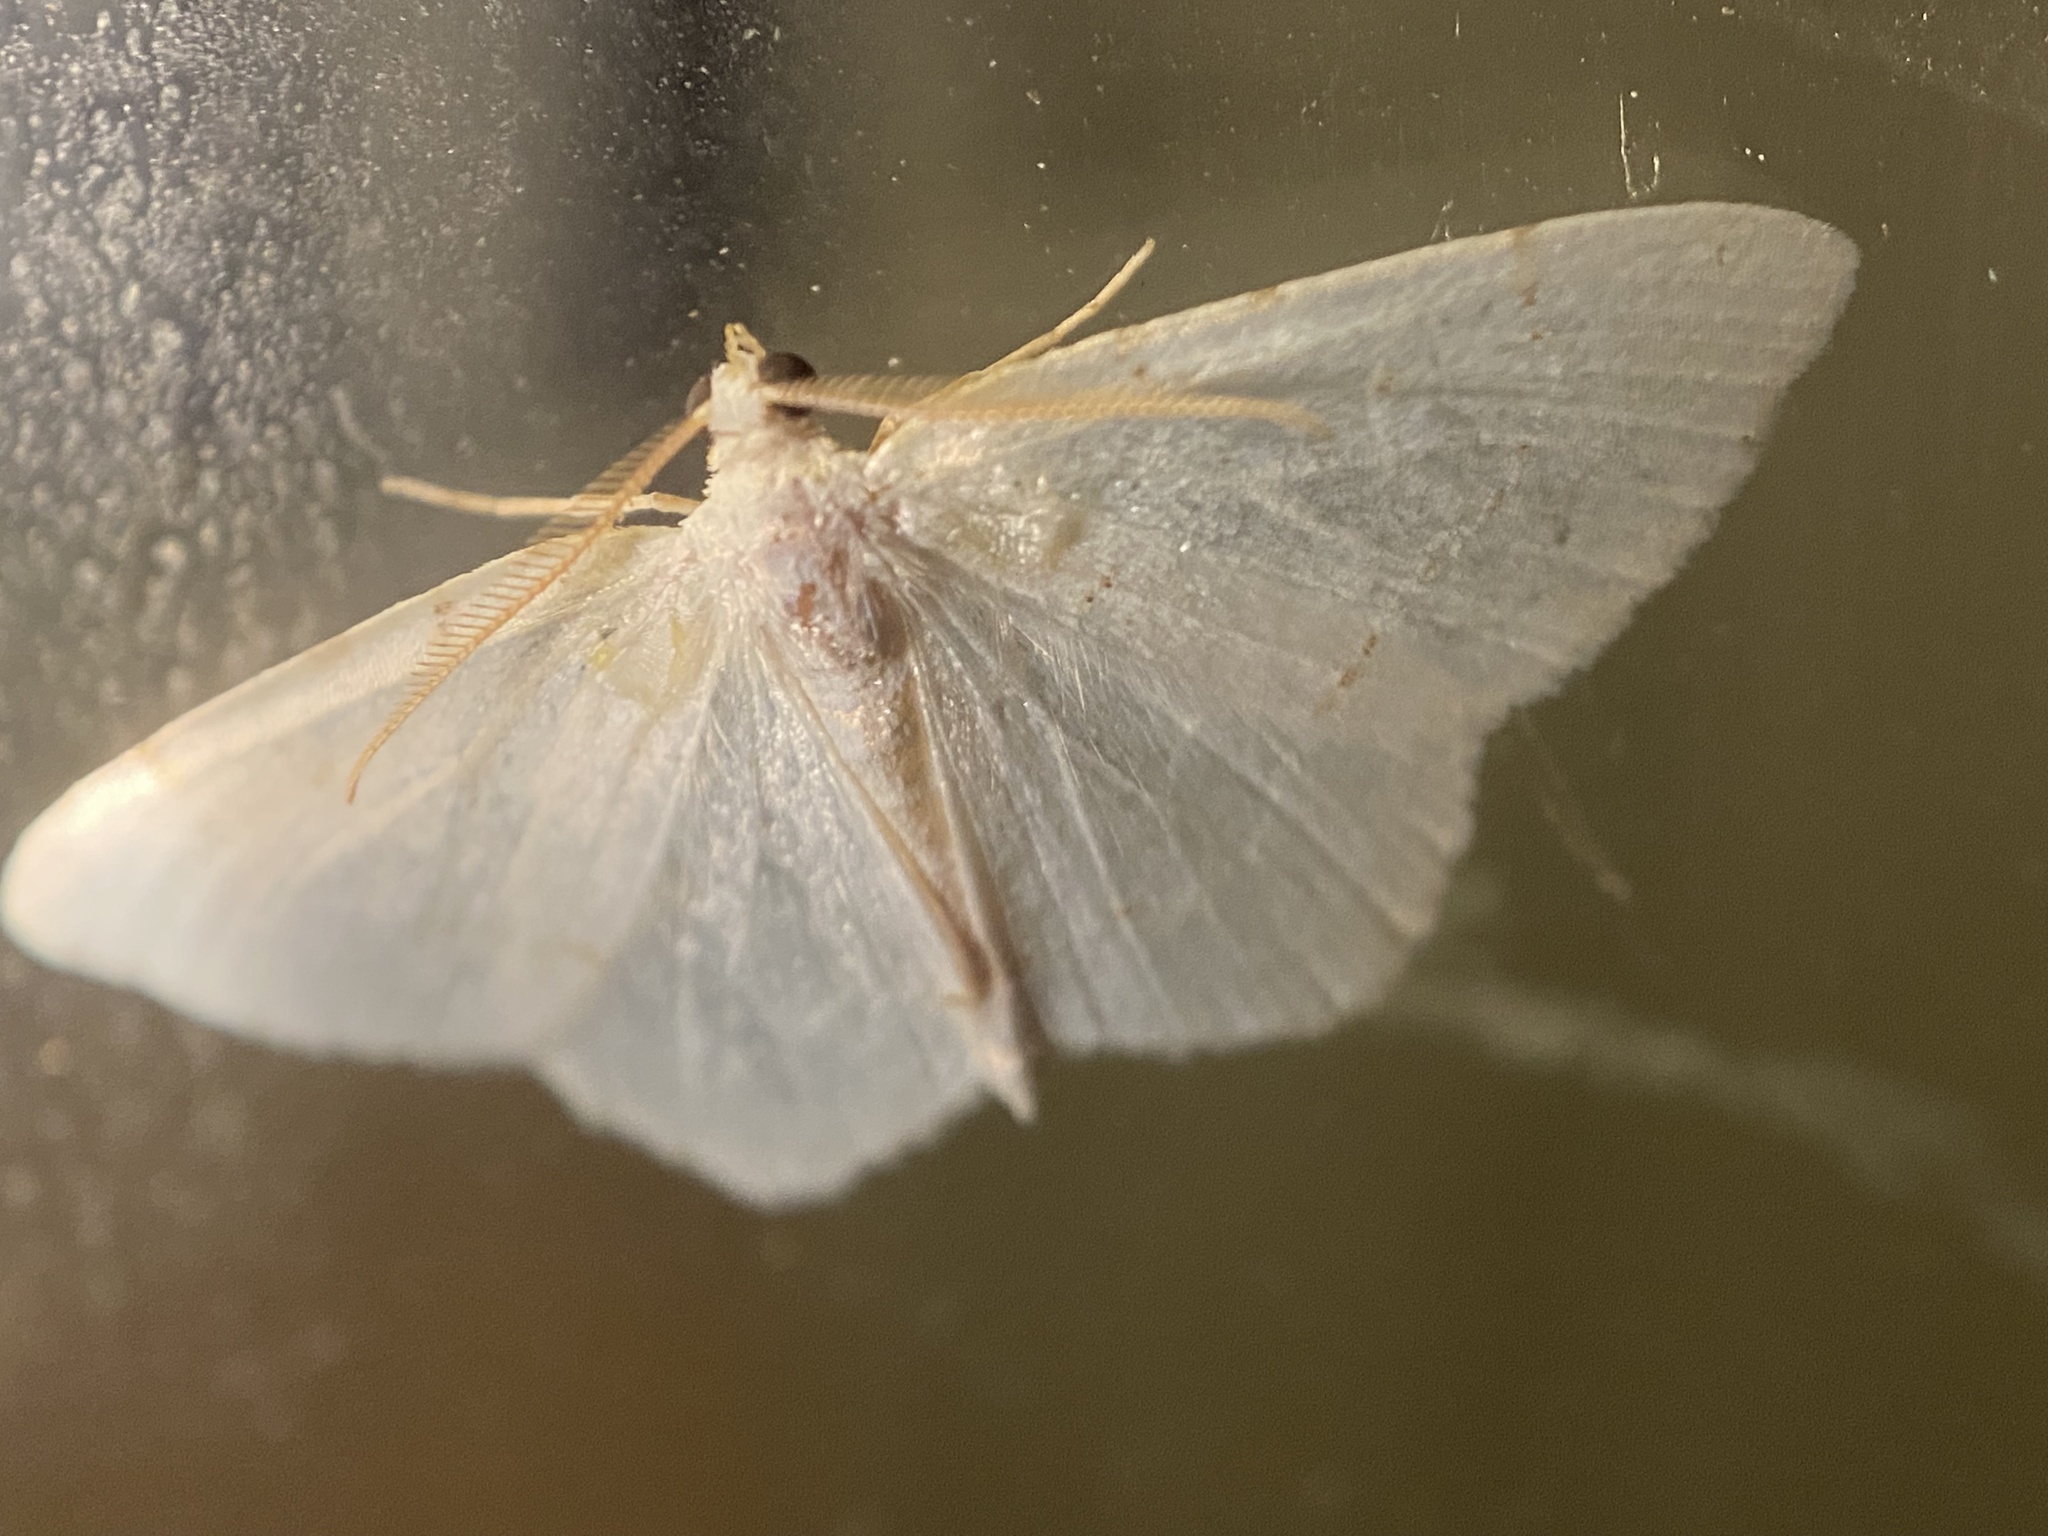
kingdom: Animalia
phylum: Arthropoda
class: Insecta
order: Lepidoptera
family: Geometridae
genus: Macaria
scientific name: Macaria pustularia
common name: Lesser maple spanworm moth
